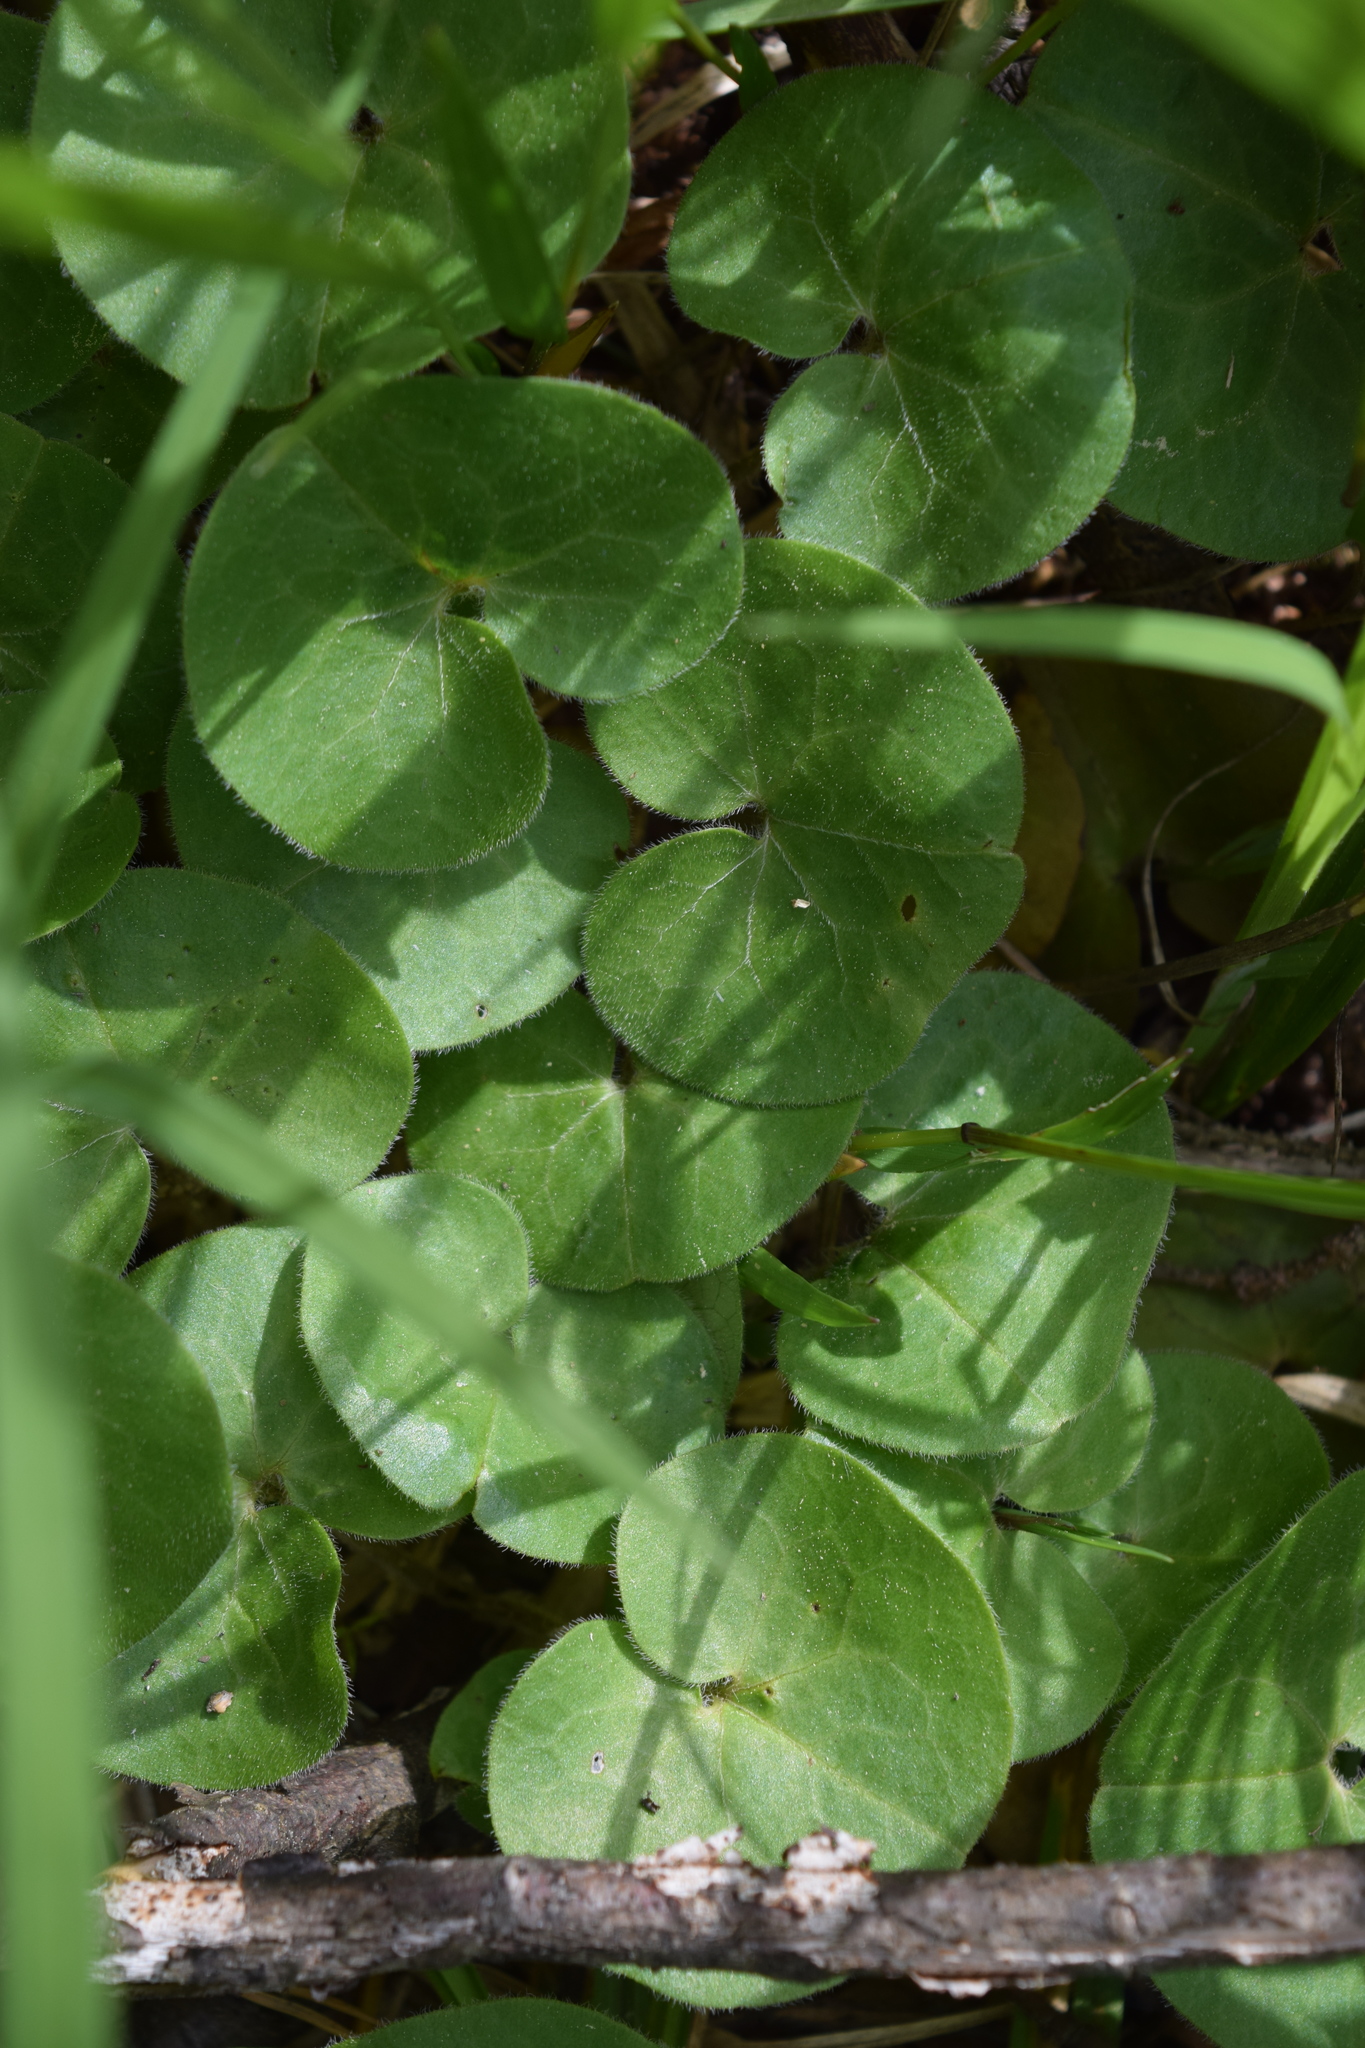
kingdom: Plantae
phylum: Tracheophyta
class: Magnoliopsida
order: Piperales
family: Aristolochiaceae
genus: Asarum
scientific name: Asarum europaeum
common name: Asarabacca
